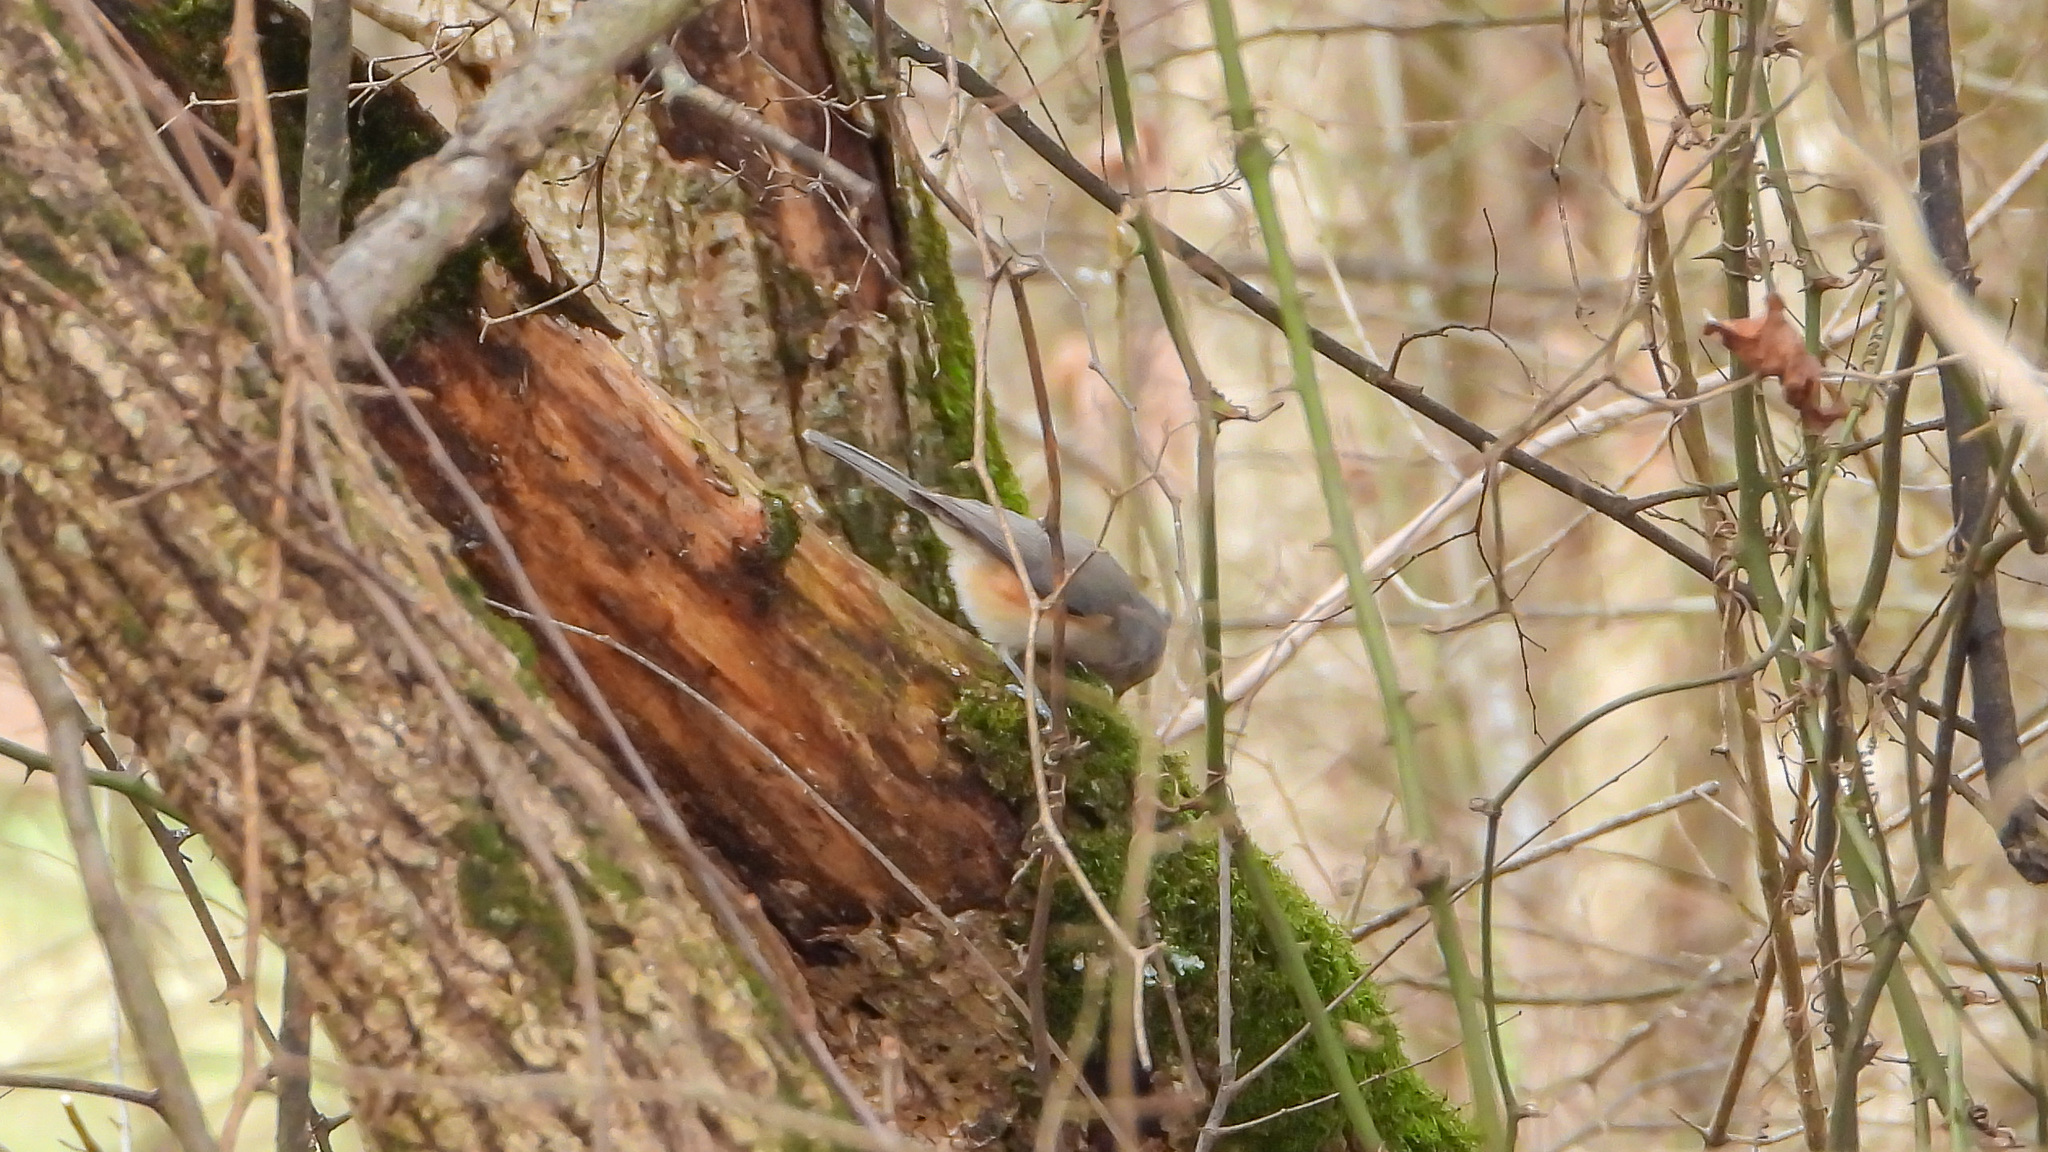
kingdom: Animalia
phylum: Chordata
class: Aves
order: Passeriformes
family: Paridae
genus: Baeolophus
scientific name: Baeolophus bicolor
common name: Tufted titmouse
